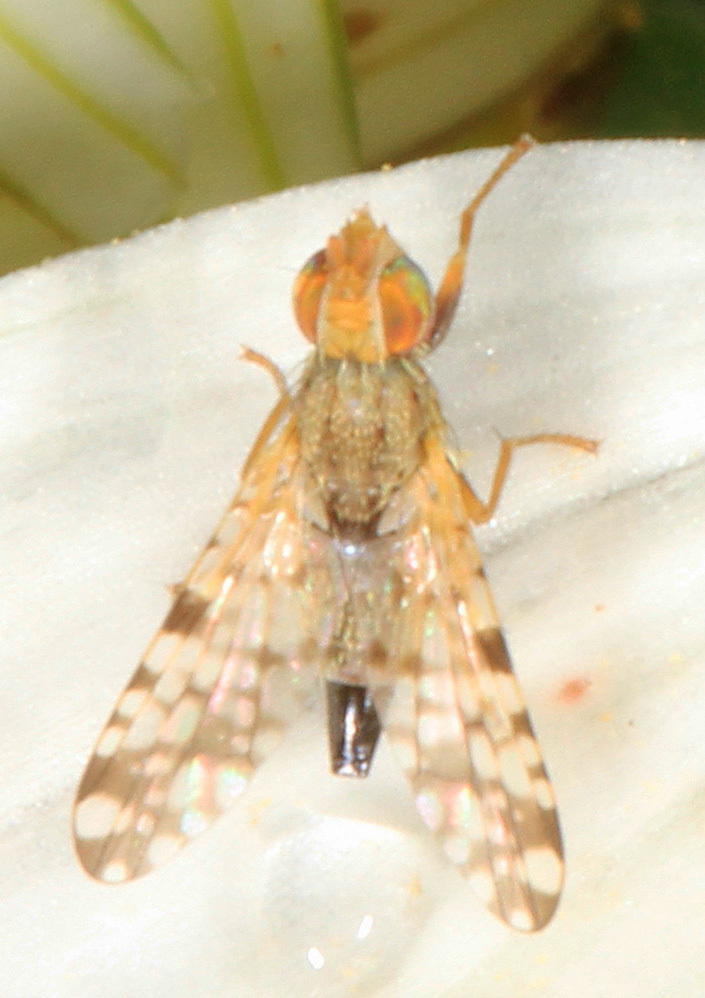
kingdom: Animalia
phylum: Arthropoda
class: Insecta
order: Diptera
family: Tephritidae
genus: Dioxyna
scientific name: Dioxyna picciola
